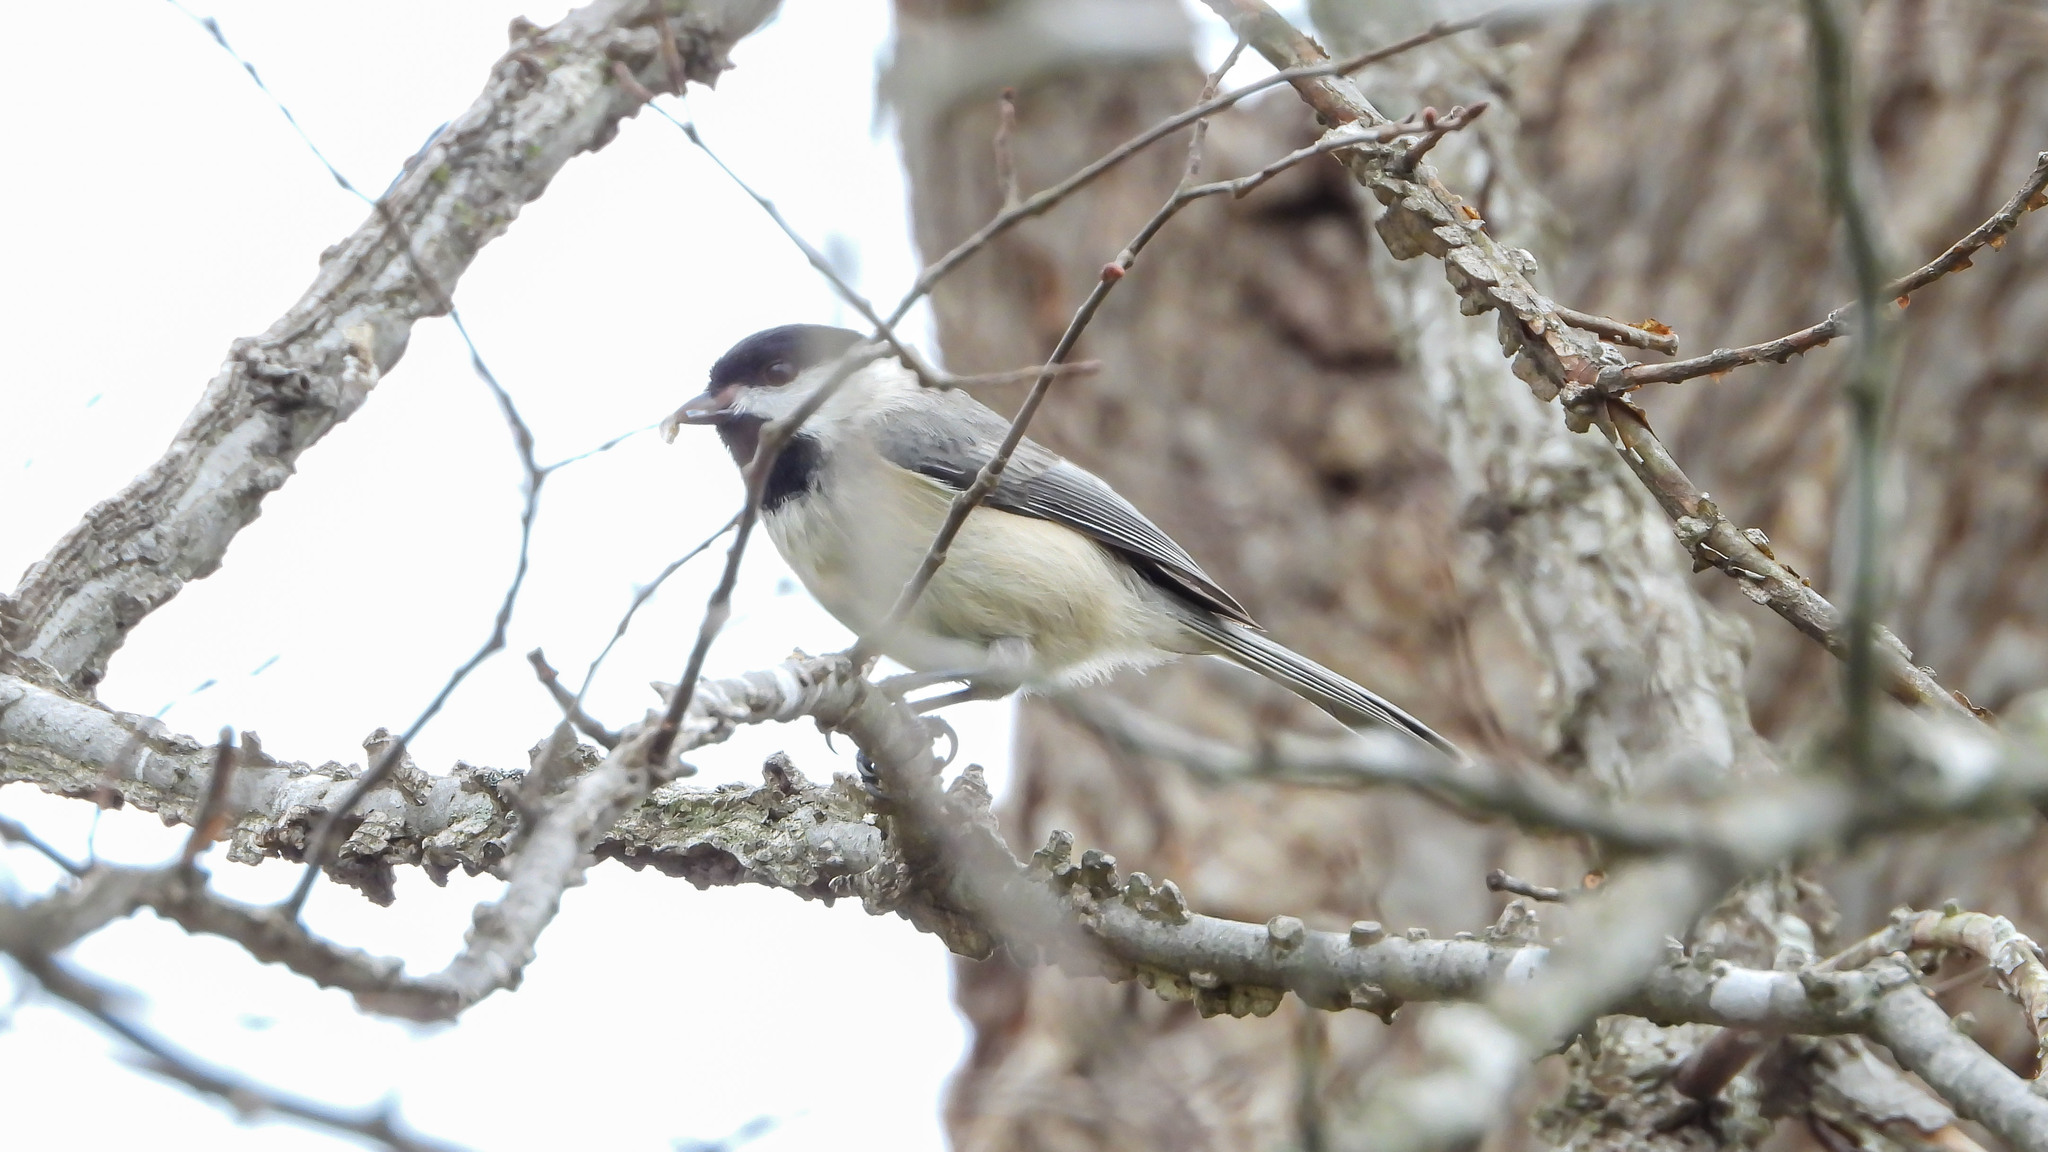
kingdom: Animalia
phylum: Chordata
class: Aves
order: Passeriformes
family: Paridae
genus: Poecile
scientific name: Poecile carolinensis
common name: Carolina chickadee
